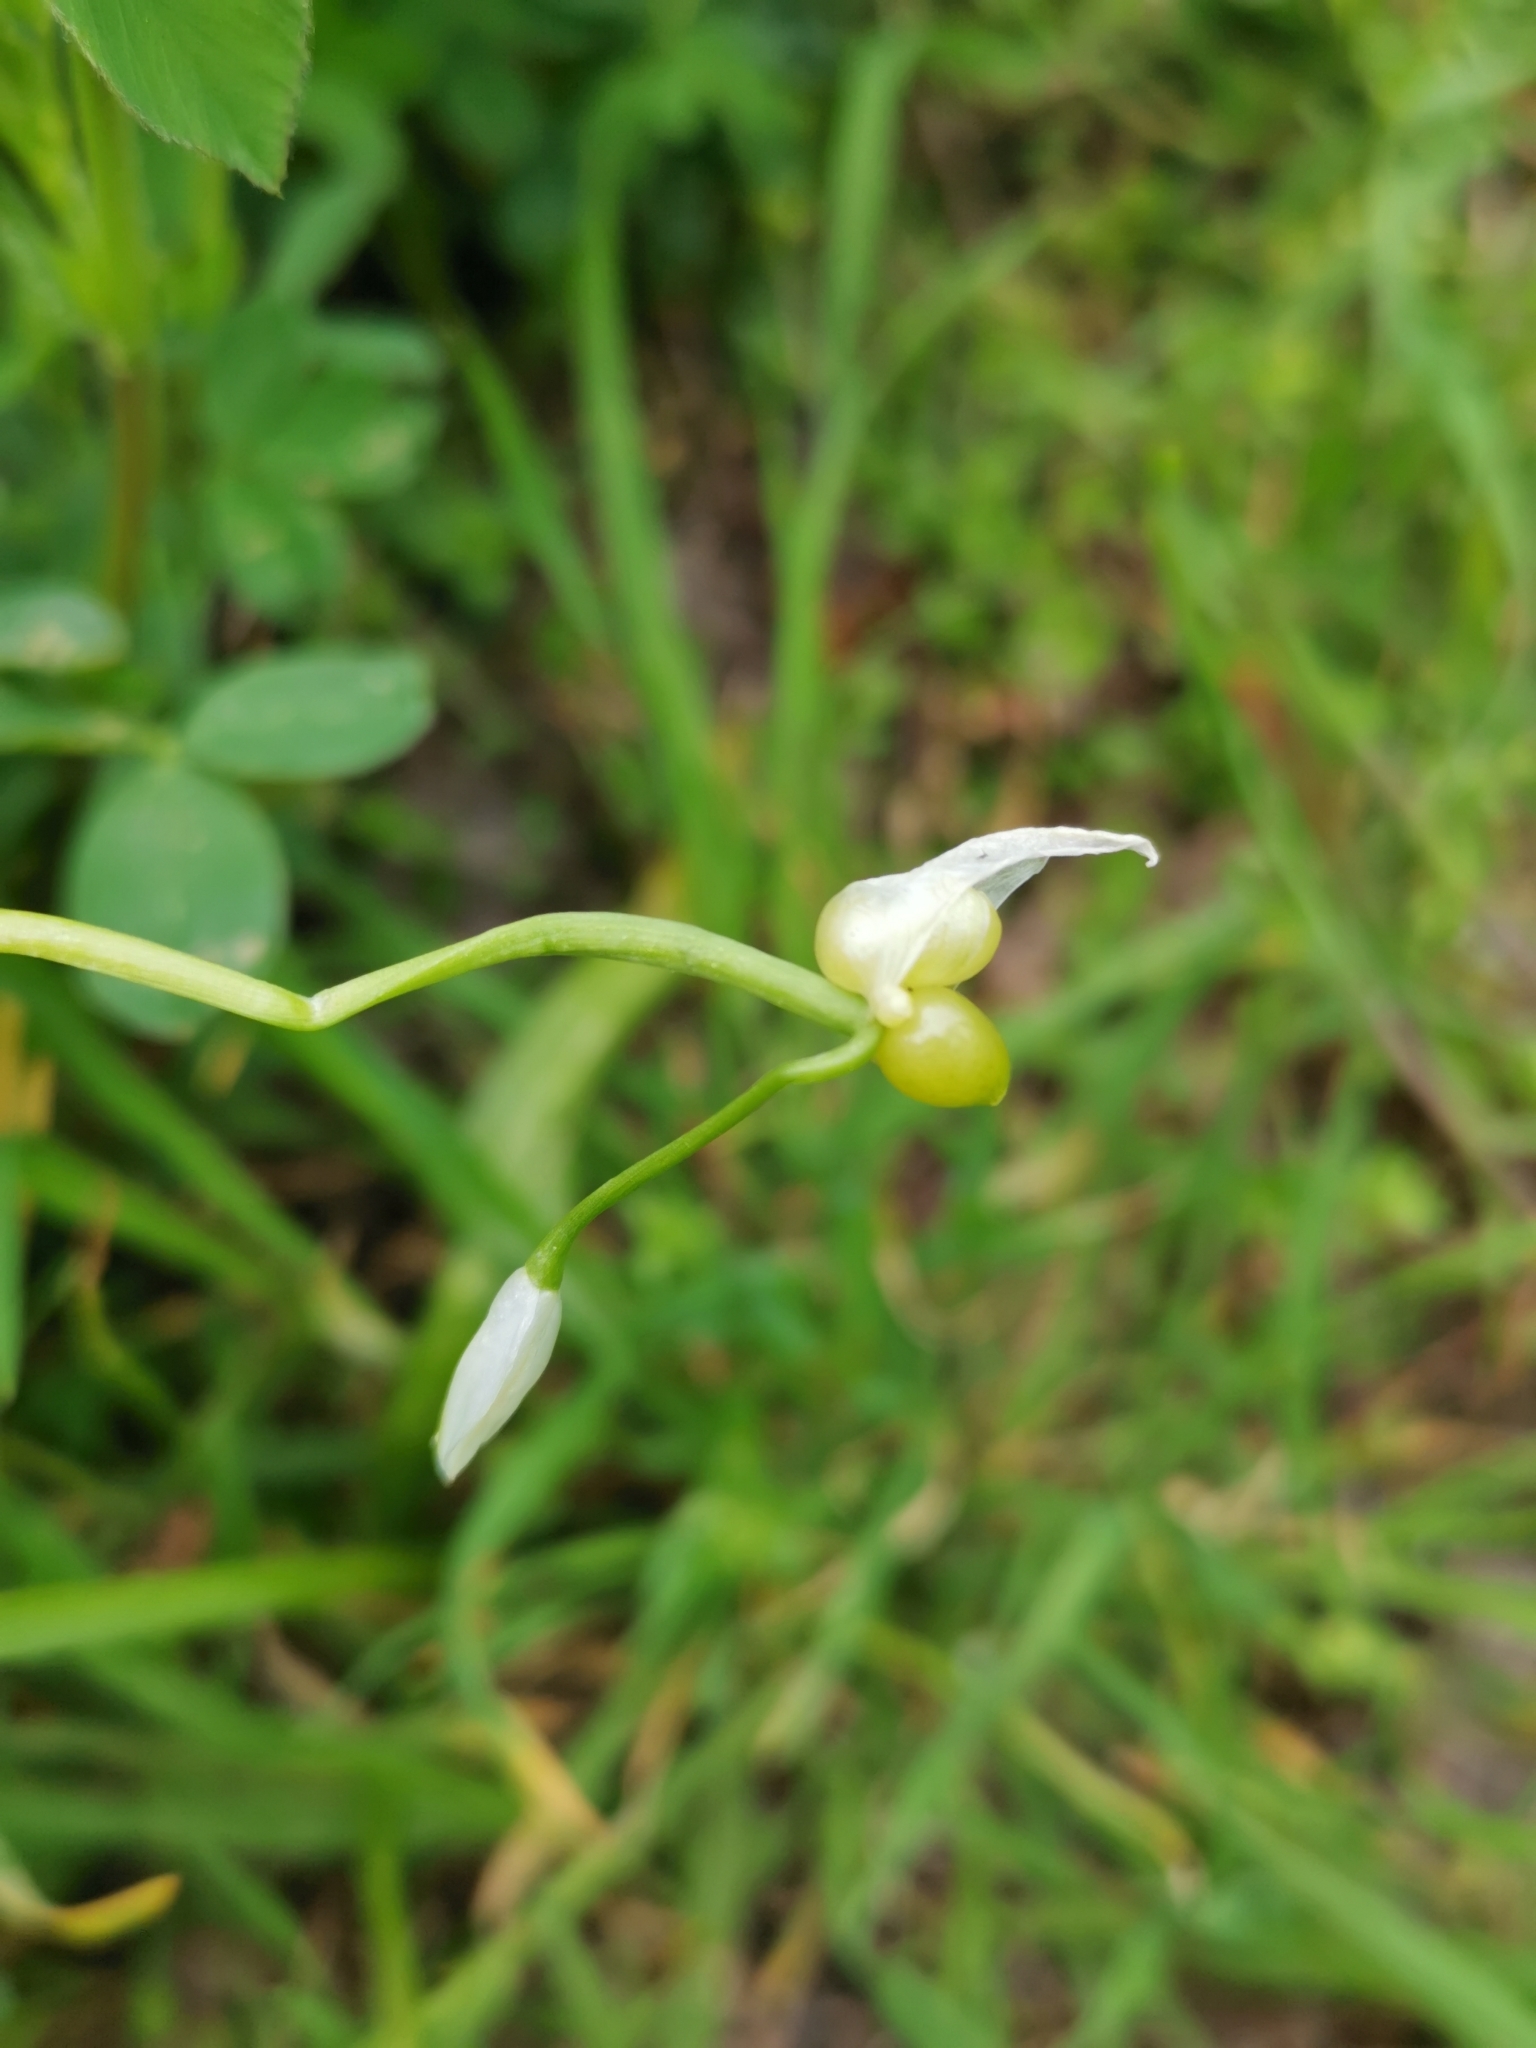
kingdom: Plantae
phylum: Tracheophyta
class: Liliopsida
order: Asparagales
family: Amaryllidaceae
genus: Allium
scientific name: Allium paradoxum
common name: Few-flowered garlic
